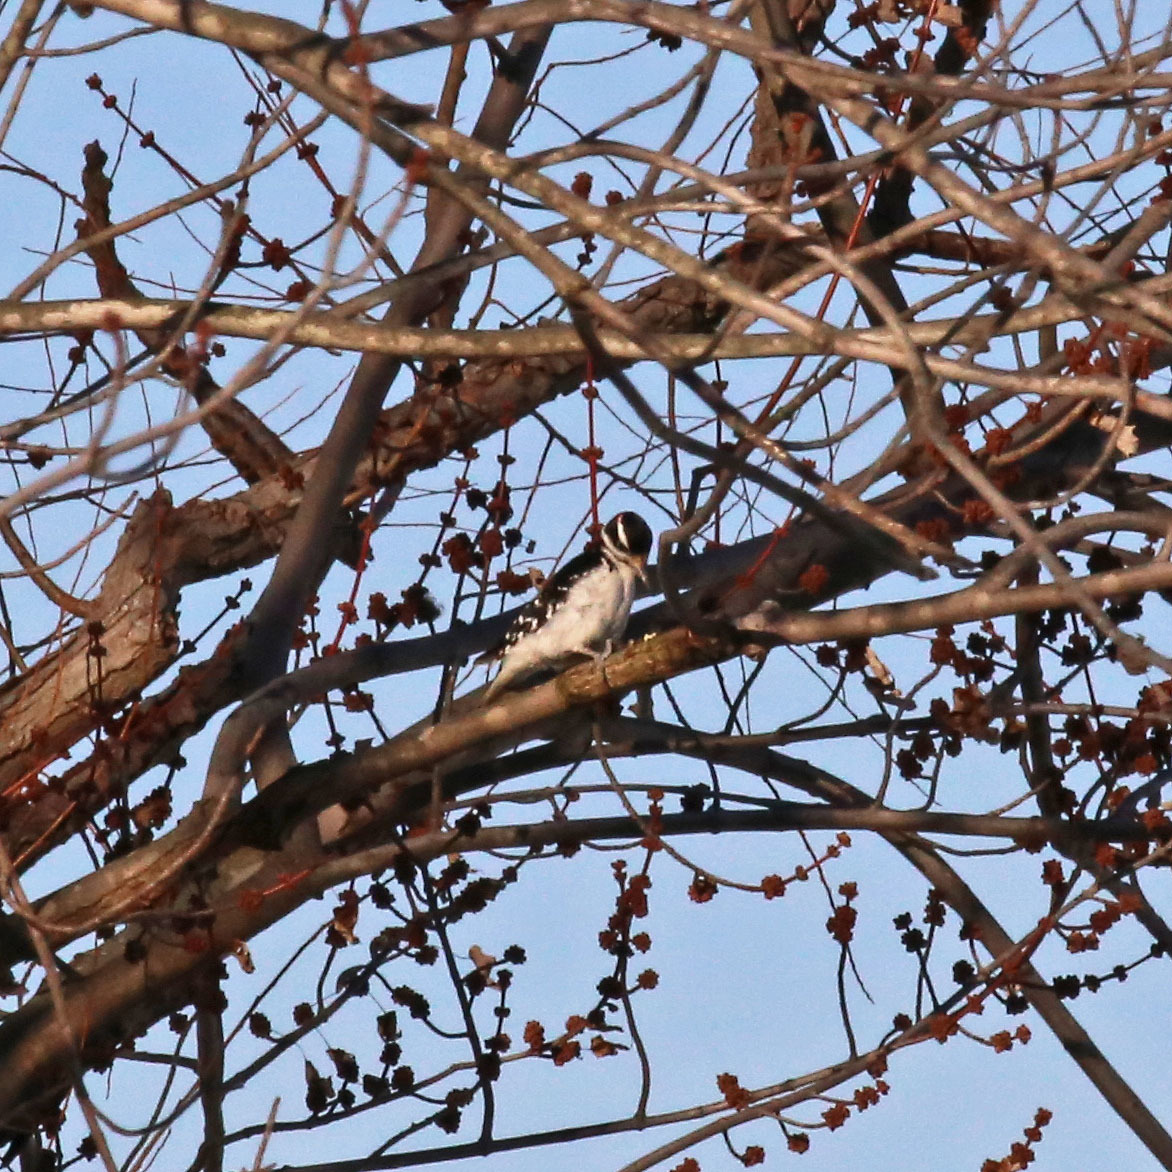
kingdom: Animalia
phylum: Chordata
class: Aves
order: Piciformes
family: Picidae
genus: Leuconotopicus
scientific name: Leuconotopicus villosus
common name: Hairy woodpecker
